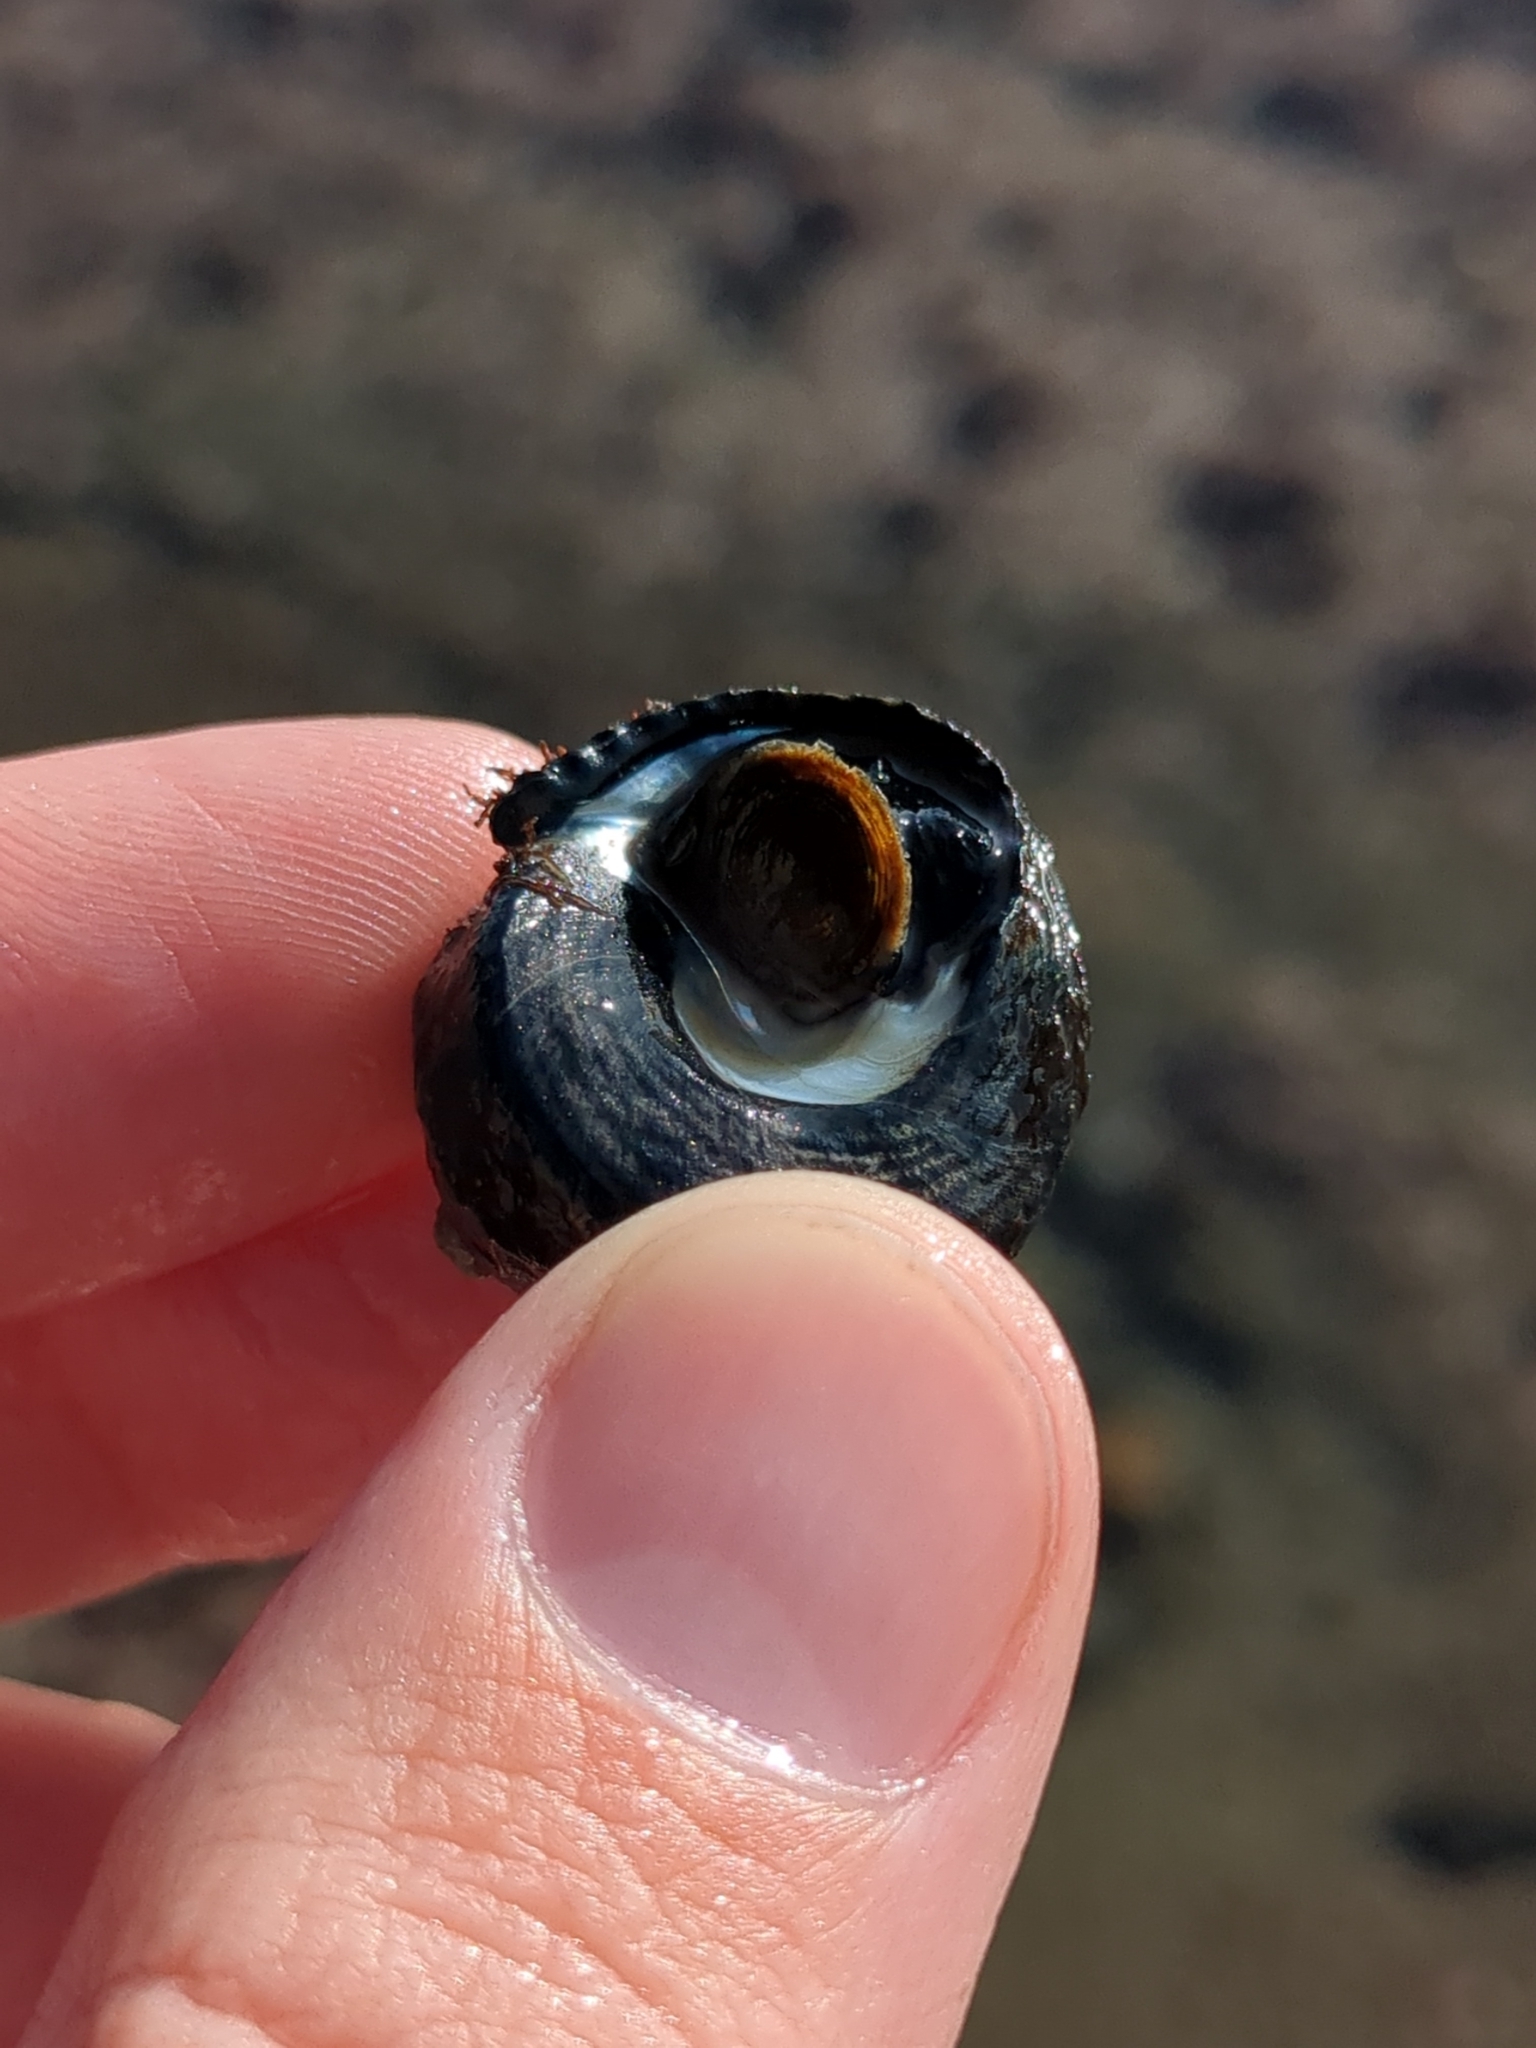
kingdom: Animalia
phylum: Mollusca
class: Gastropoda
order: Trochida
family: Tegulidae
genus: Tegula
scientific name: Tegula funebralis
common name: Black tegula
